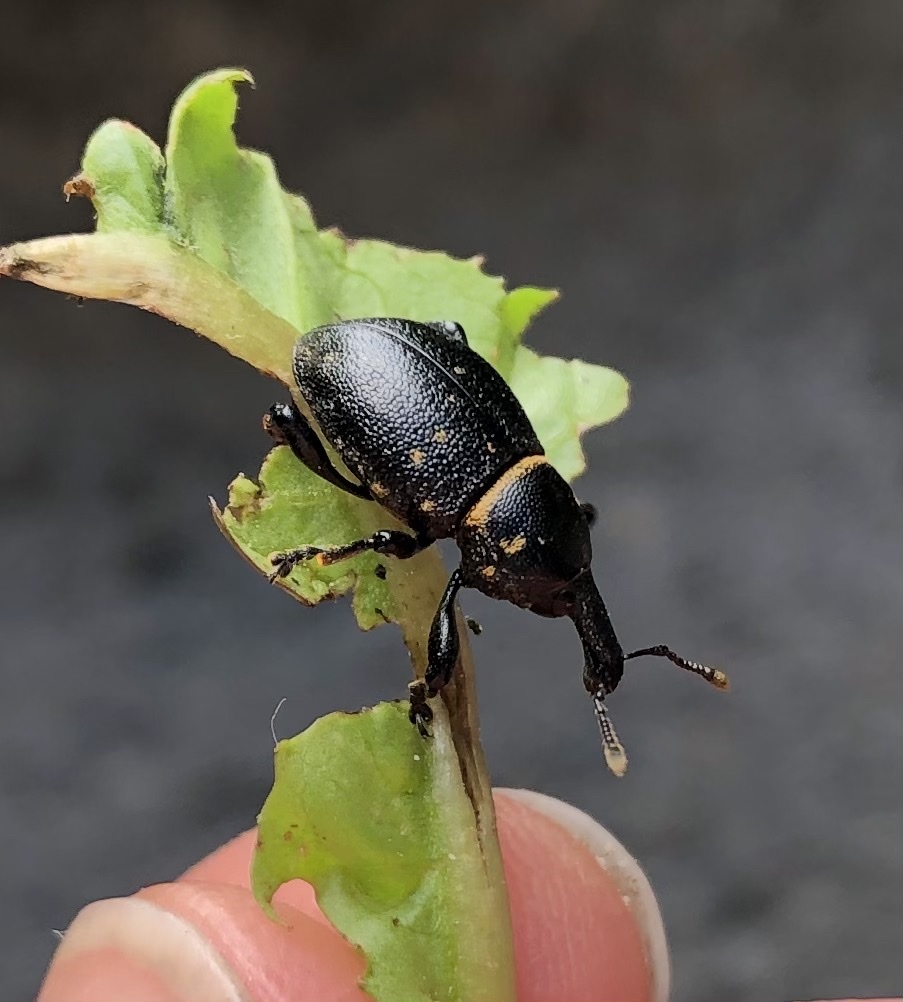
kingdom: Animalia
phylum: Arthropoda
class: Insecta
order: Coleoptera
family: Curculionidae
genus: Liparus
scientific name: Liparus coronatus
